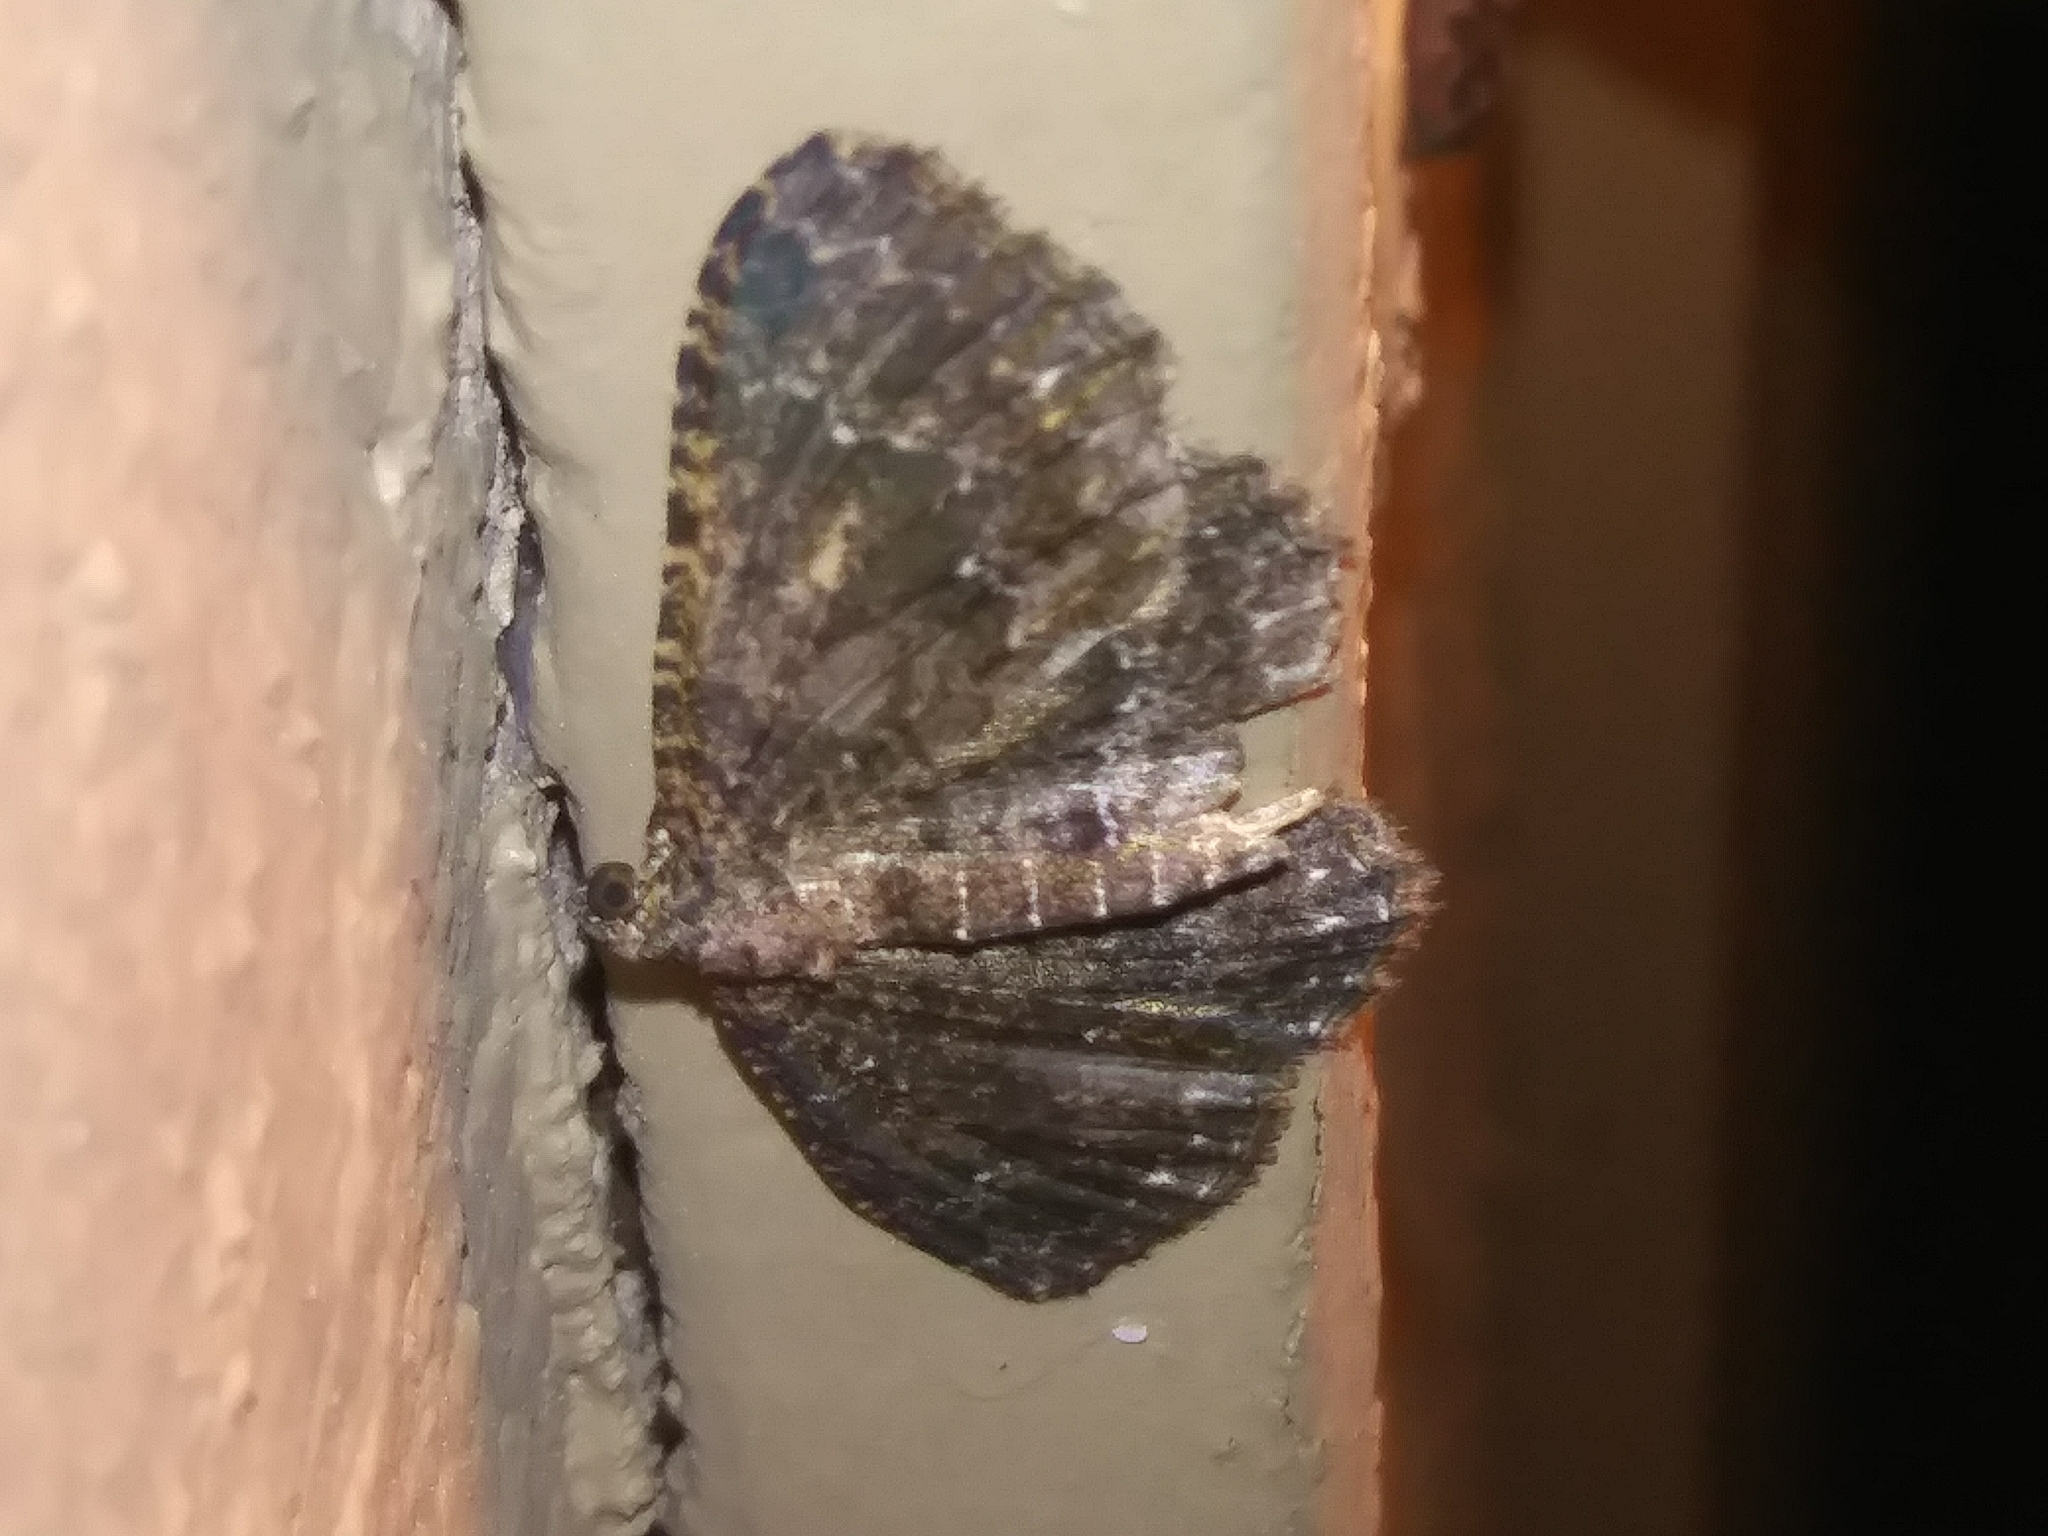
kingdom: Animalia
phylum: Arthropoda
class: Insecta
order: Lepidoptera
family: Geometridae
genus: Disclisioprocta
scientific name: Disclisioprocta stellata
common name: Somber carpet
